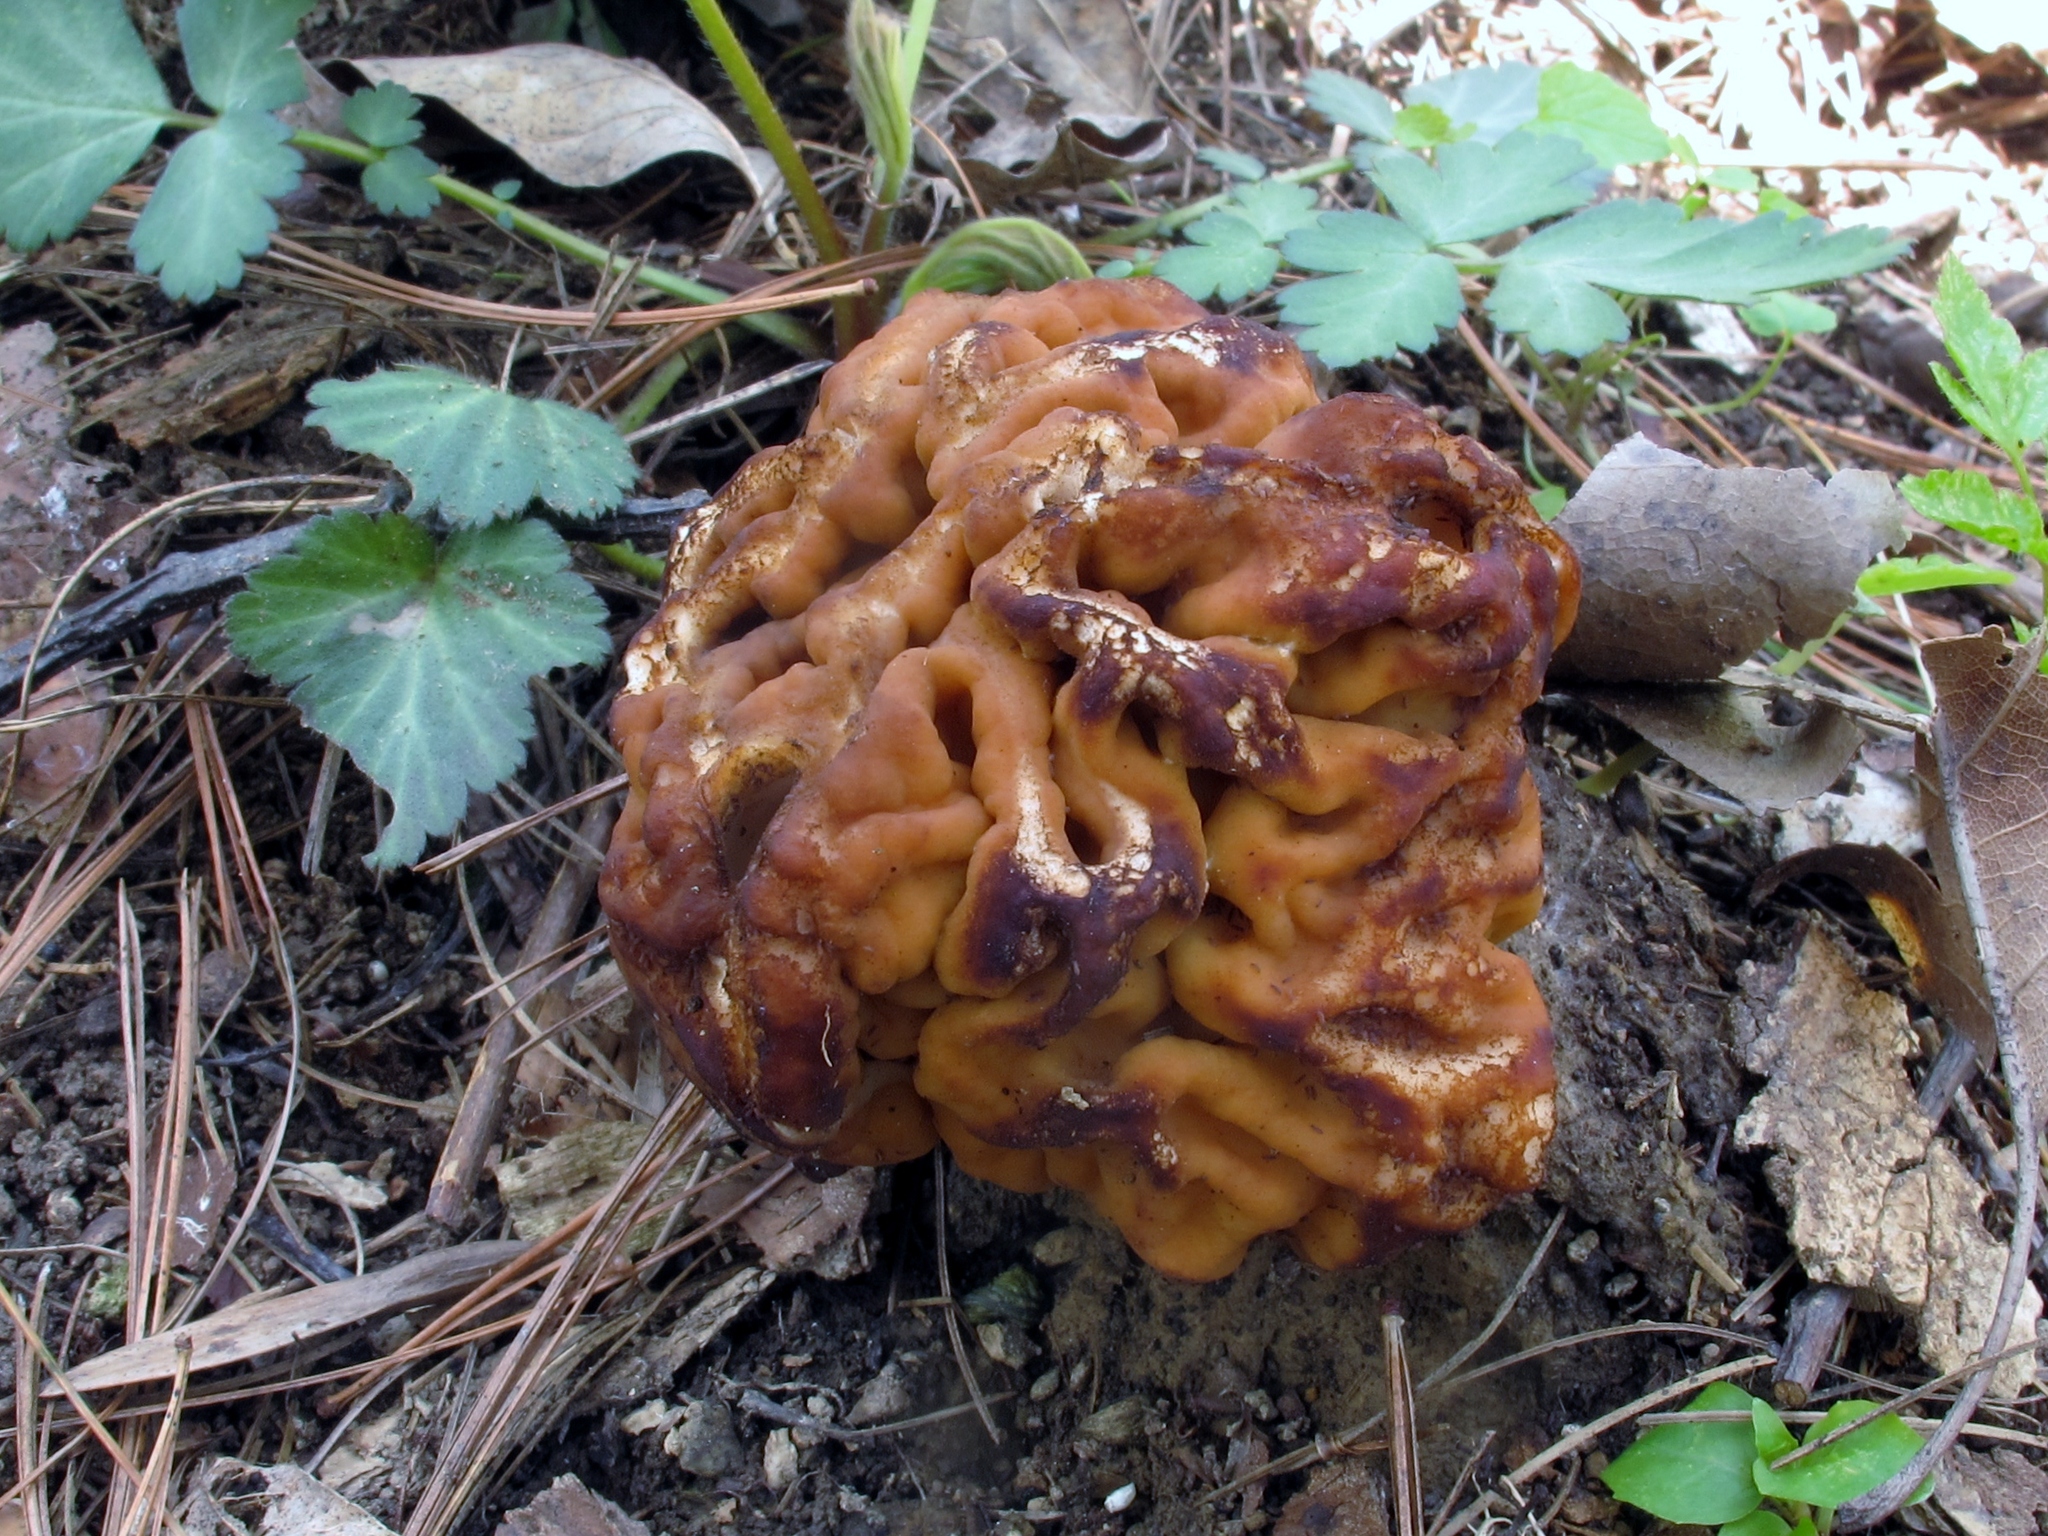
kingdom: Fungi
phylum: Ascomycota
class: Pezizomycetes
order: Pezizales
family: Discinaceae
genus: Gyromitra
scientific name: Gyromitra korfii
